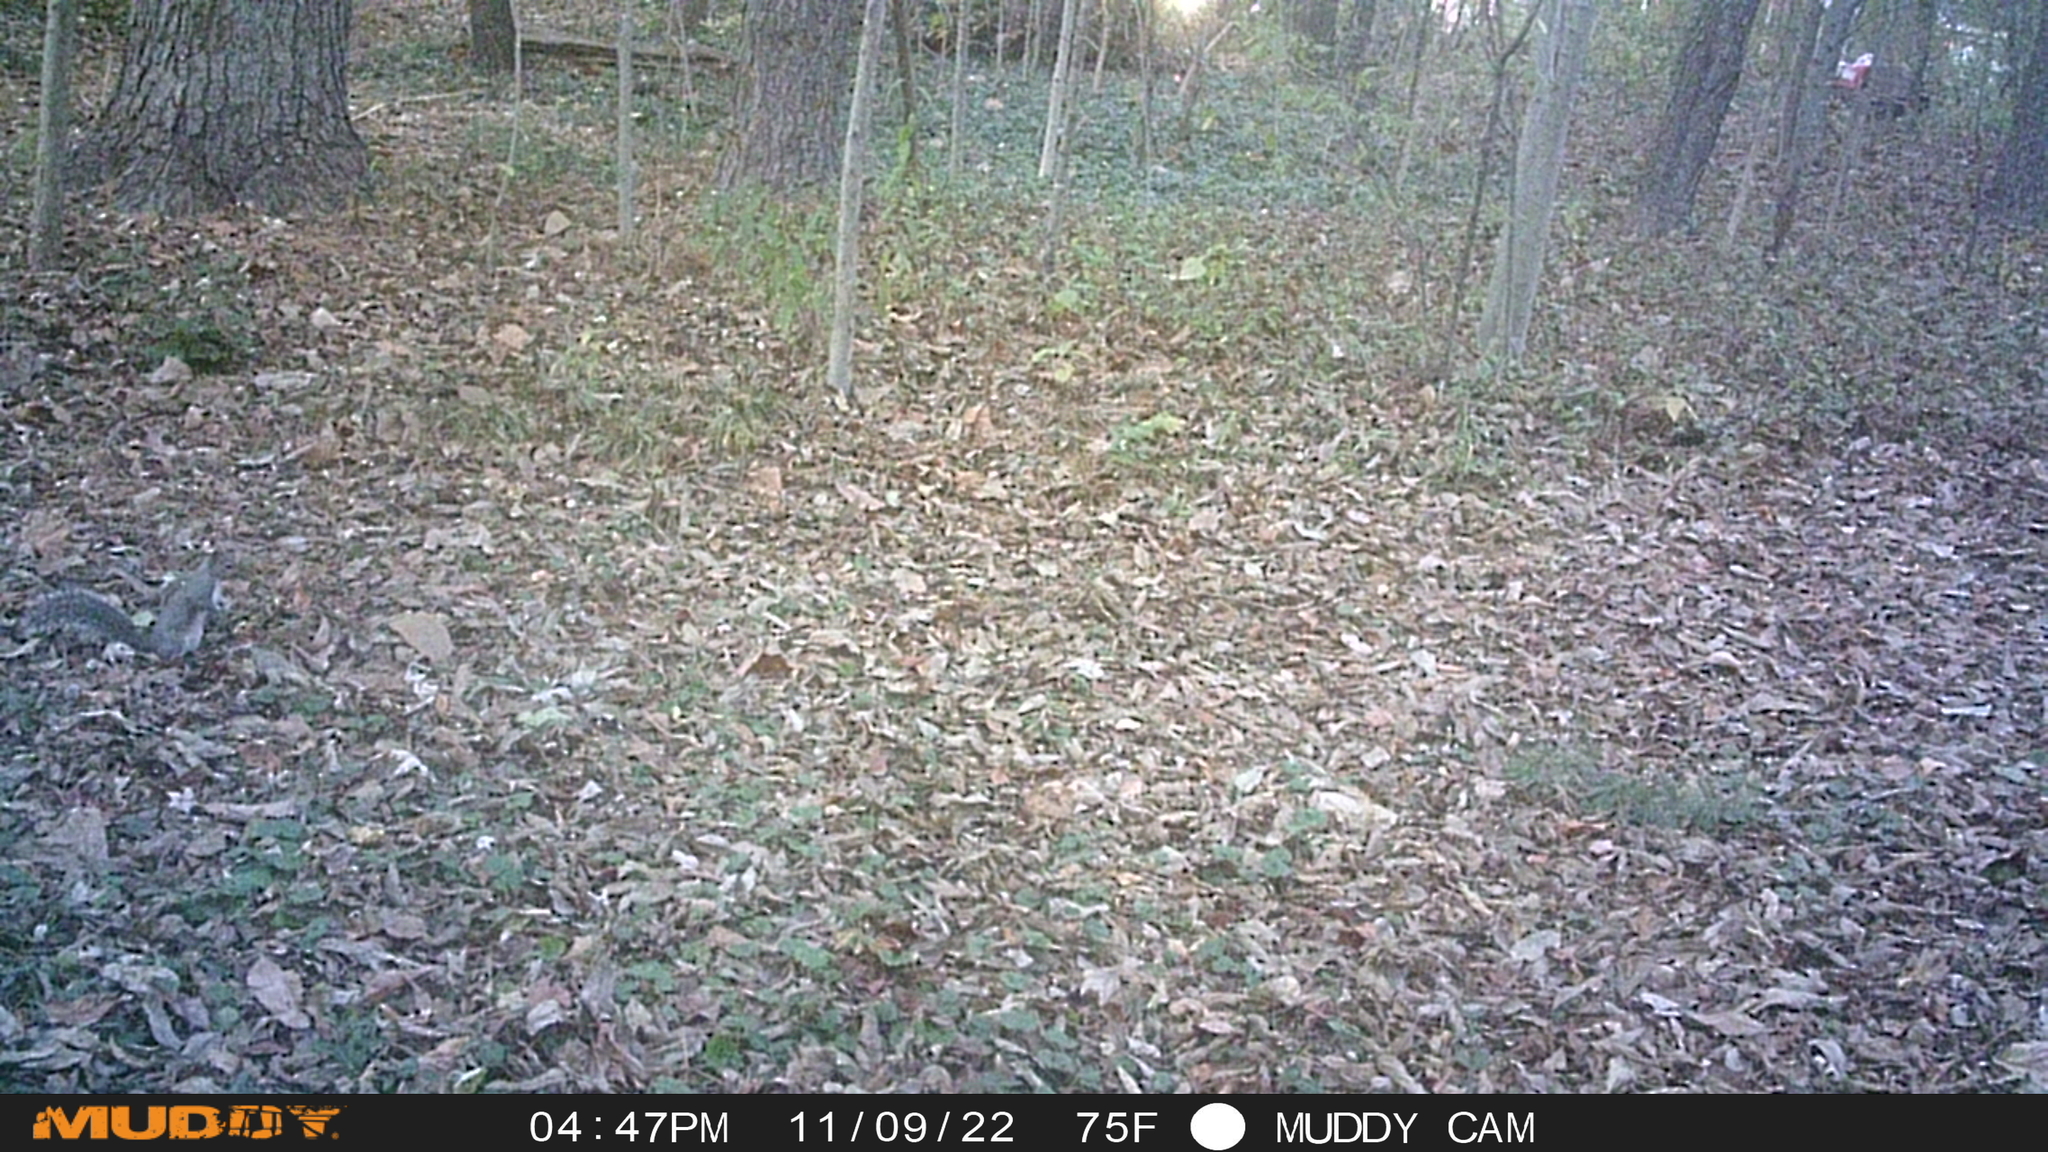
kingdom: Animalia
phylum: Chordata
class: Mammalia
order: Rodentia
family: Sciuridae
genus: Sciurus
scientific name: Sciurus carolinensis
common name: Eastern gray squirrel
